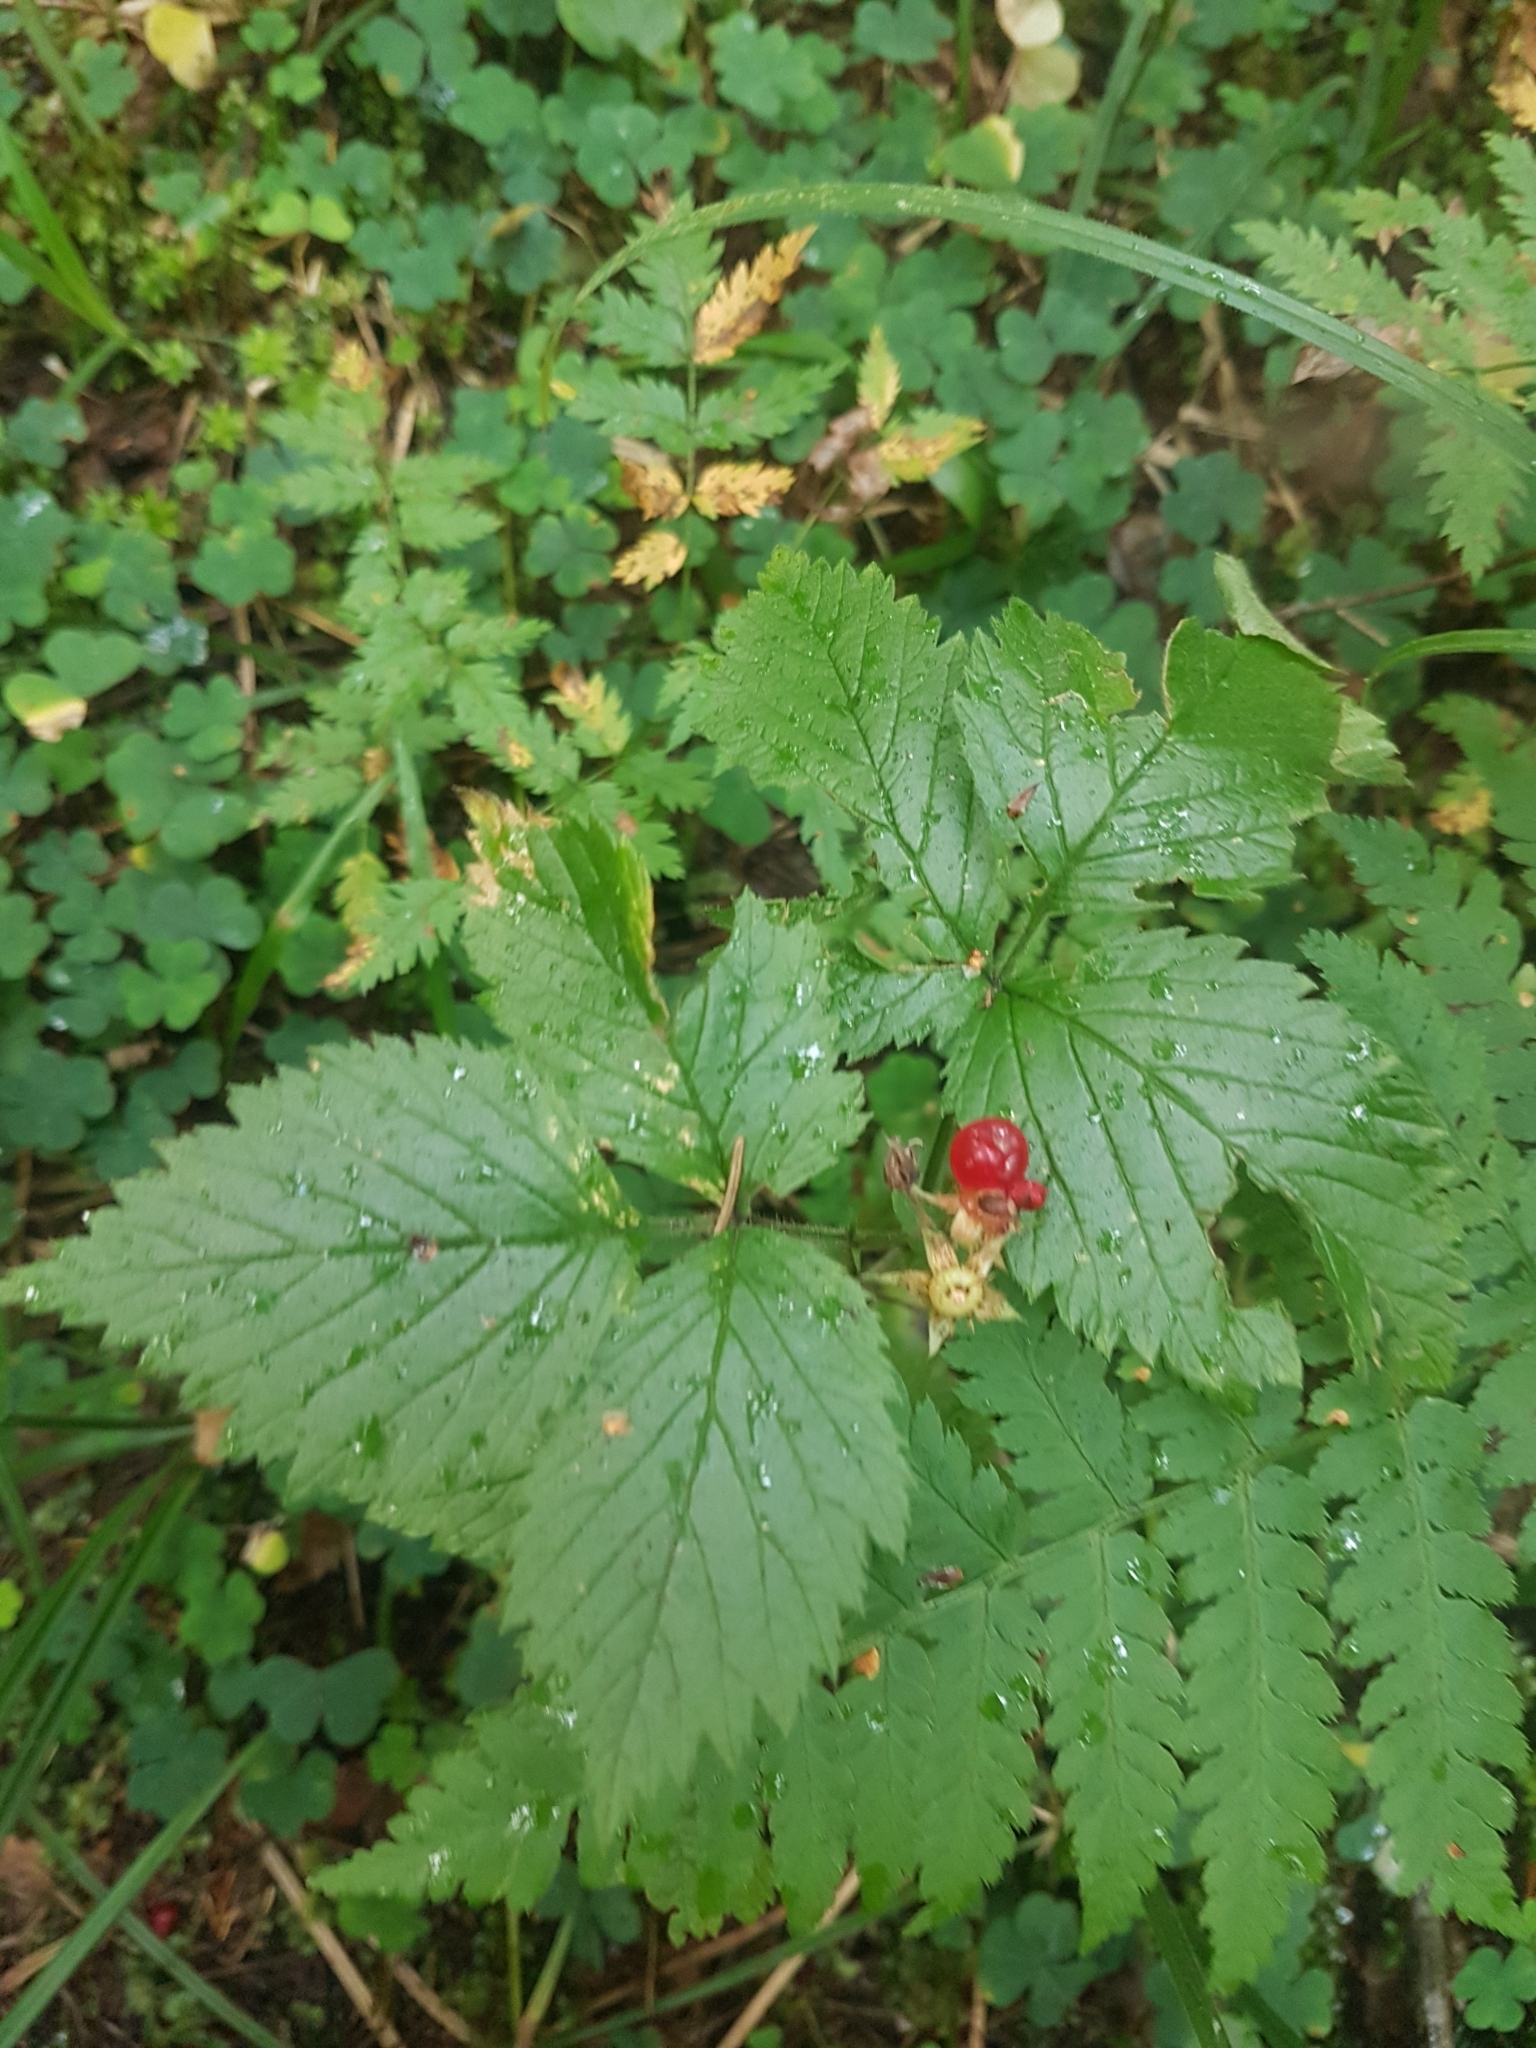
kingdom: Plantae
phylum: Tracheophyta
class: Magnoliopsida
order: Rosales
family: Rosaceae
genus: Rubus
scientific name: Rubus saxatilis
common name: Stone bramble
